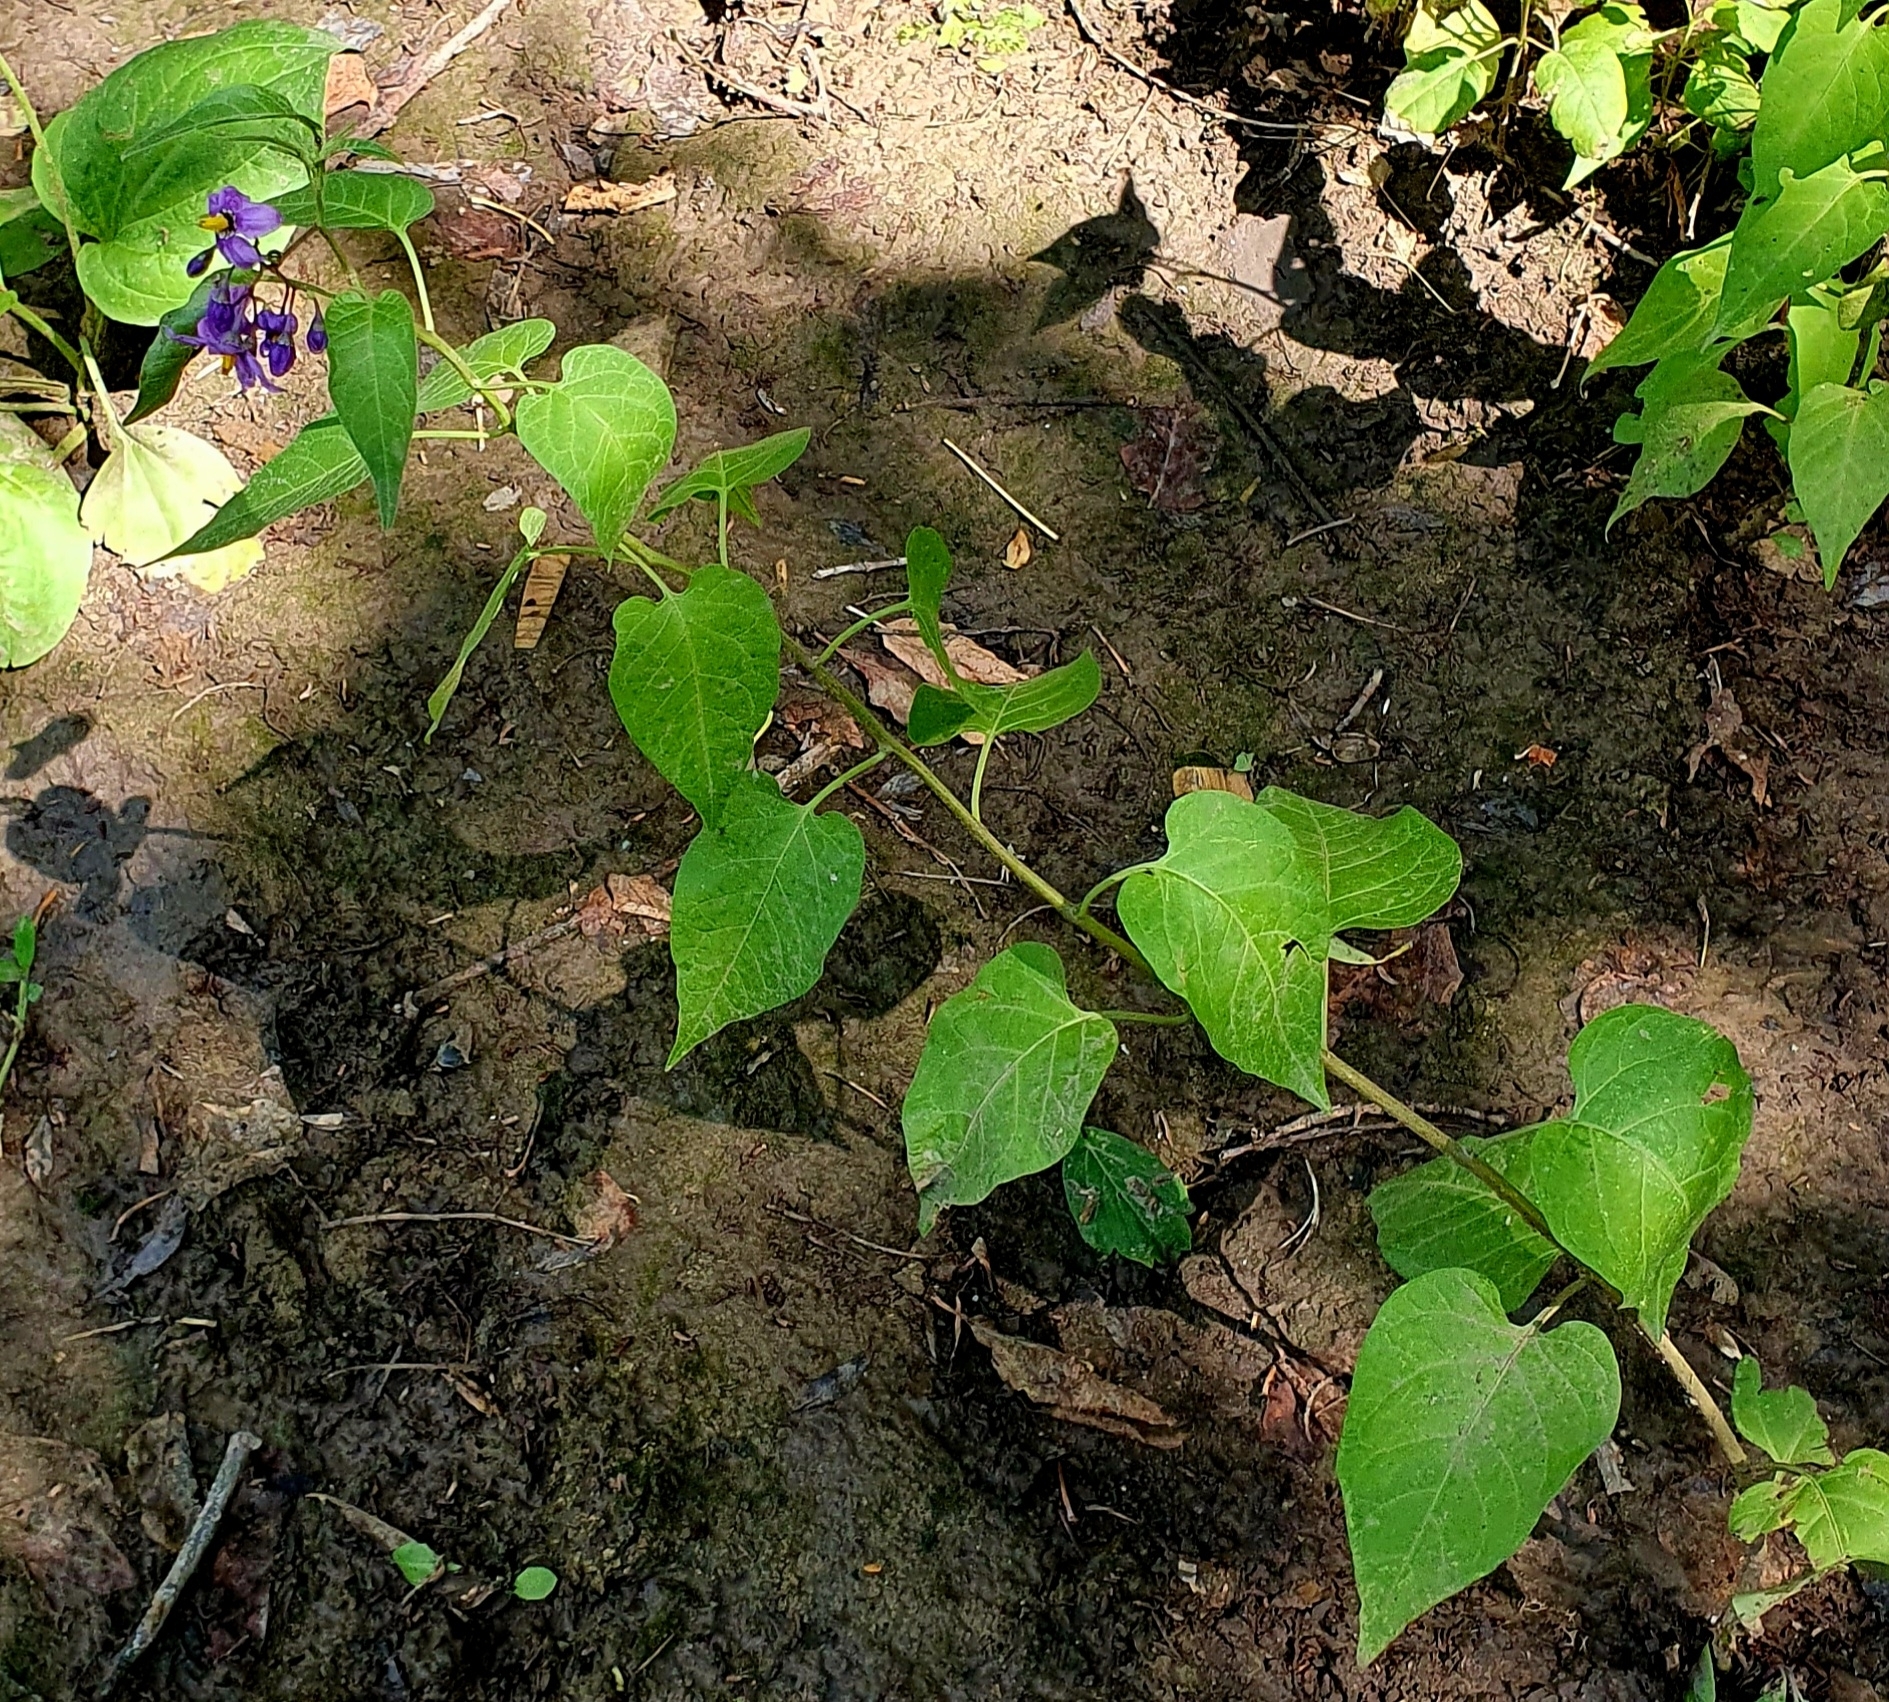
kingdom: Plantae
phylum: Tracheophyta
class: Magnoliopsida
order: Solanales
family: Solanaceae
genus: Solanum
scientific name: Solanum dulcamara
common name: Climbing nightshade
